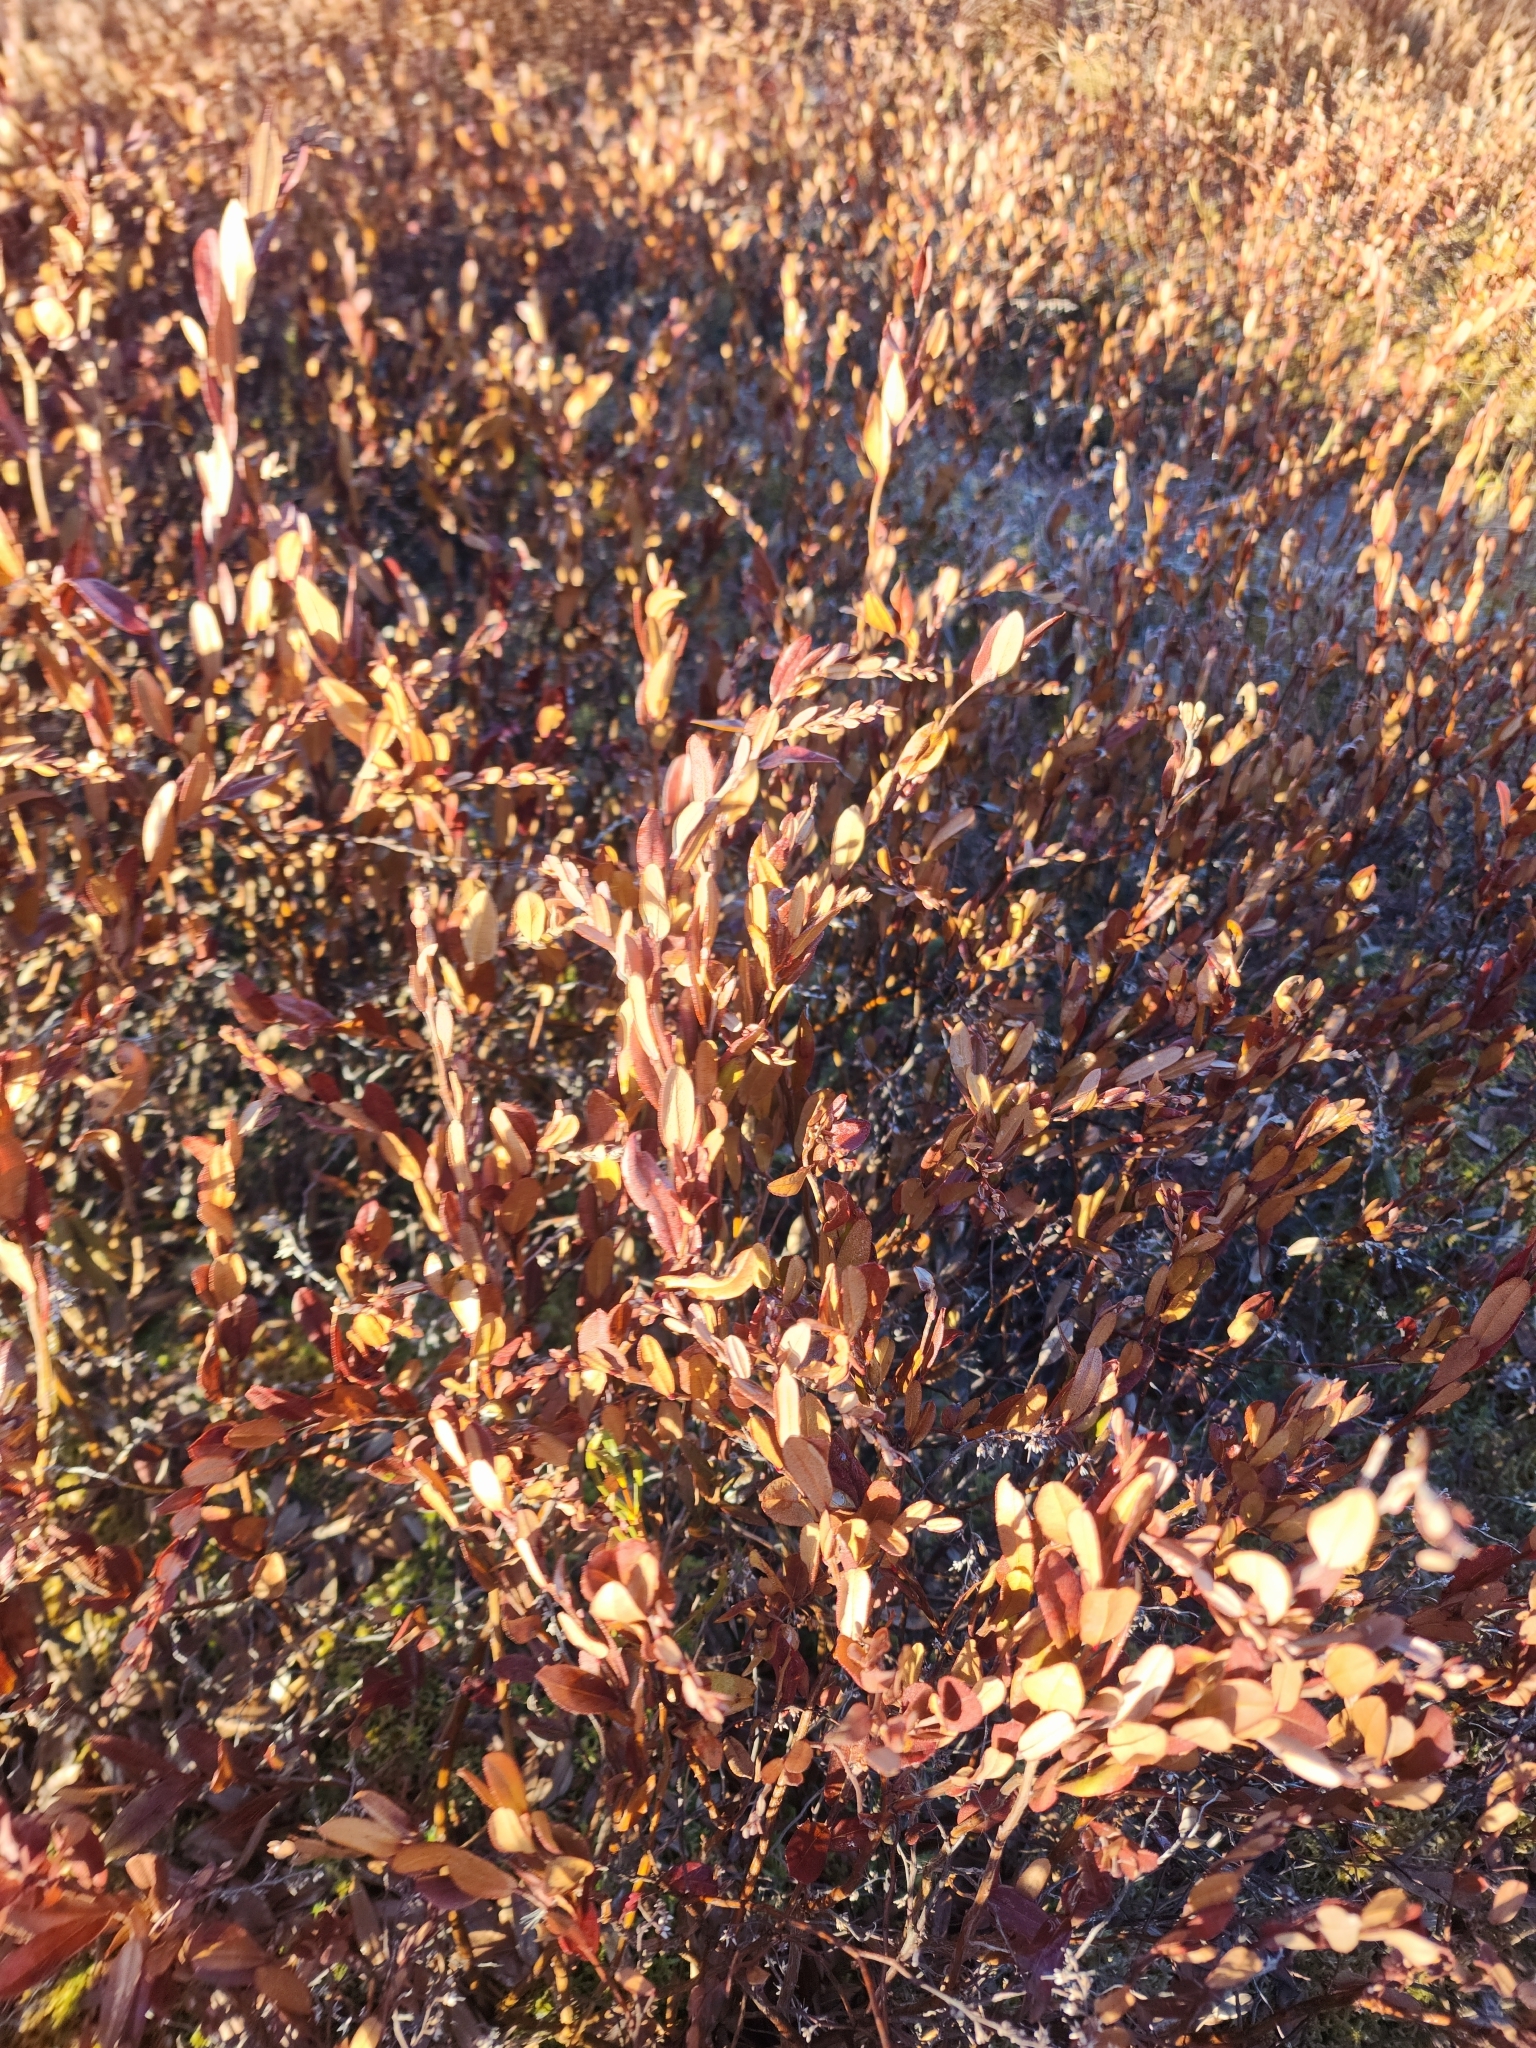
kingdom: Plantae
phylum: Tracheophyta
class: Magnoliopsida
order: Ericales
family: Ericaceae
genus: Chamaedaphne
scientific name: Chamaedaphne calyculata
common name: Leatherleaf
